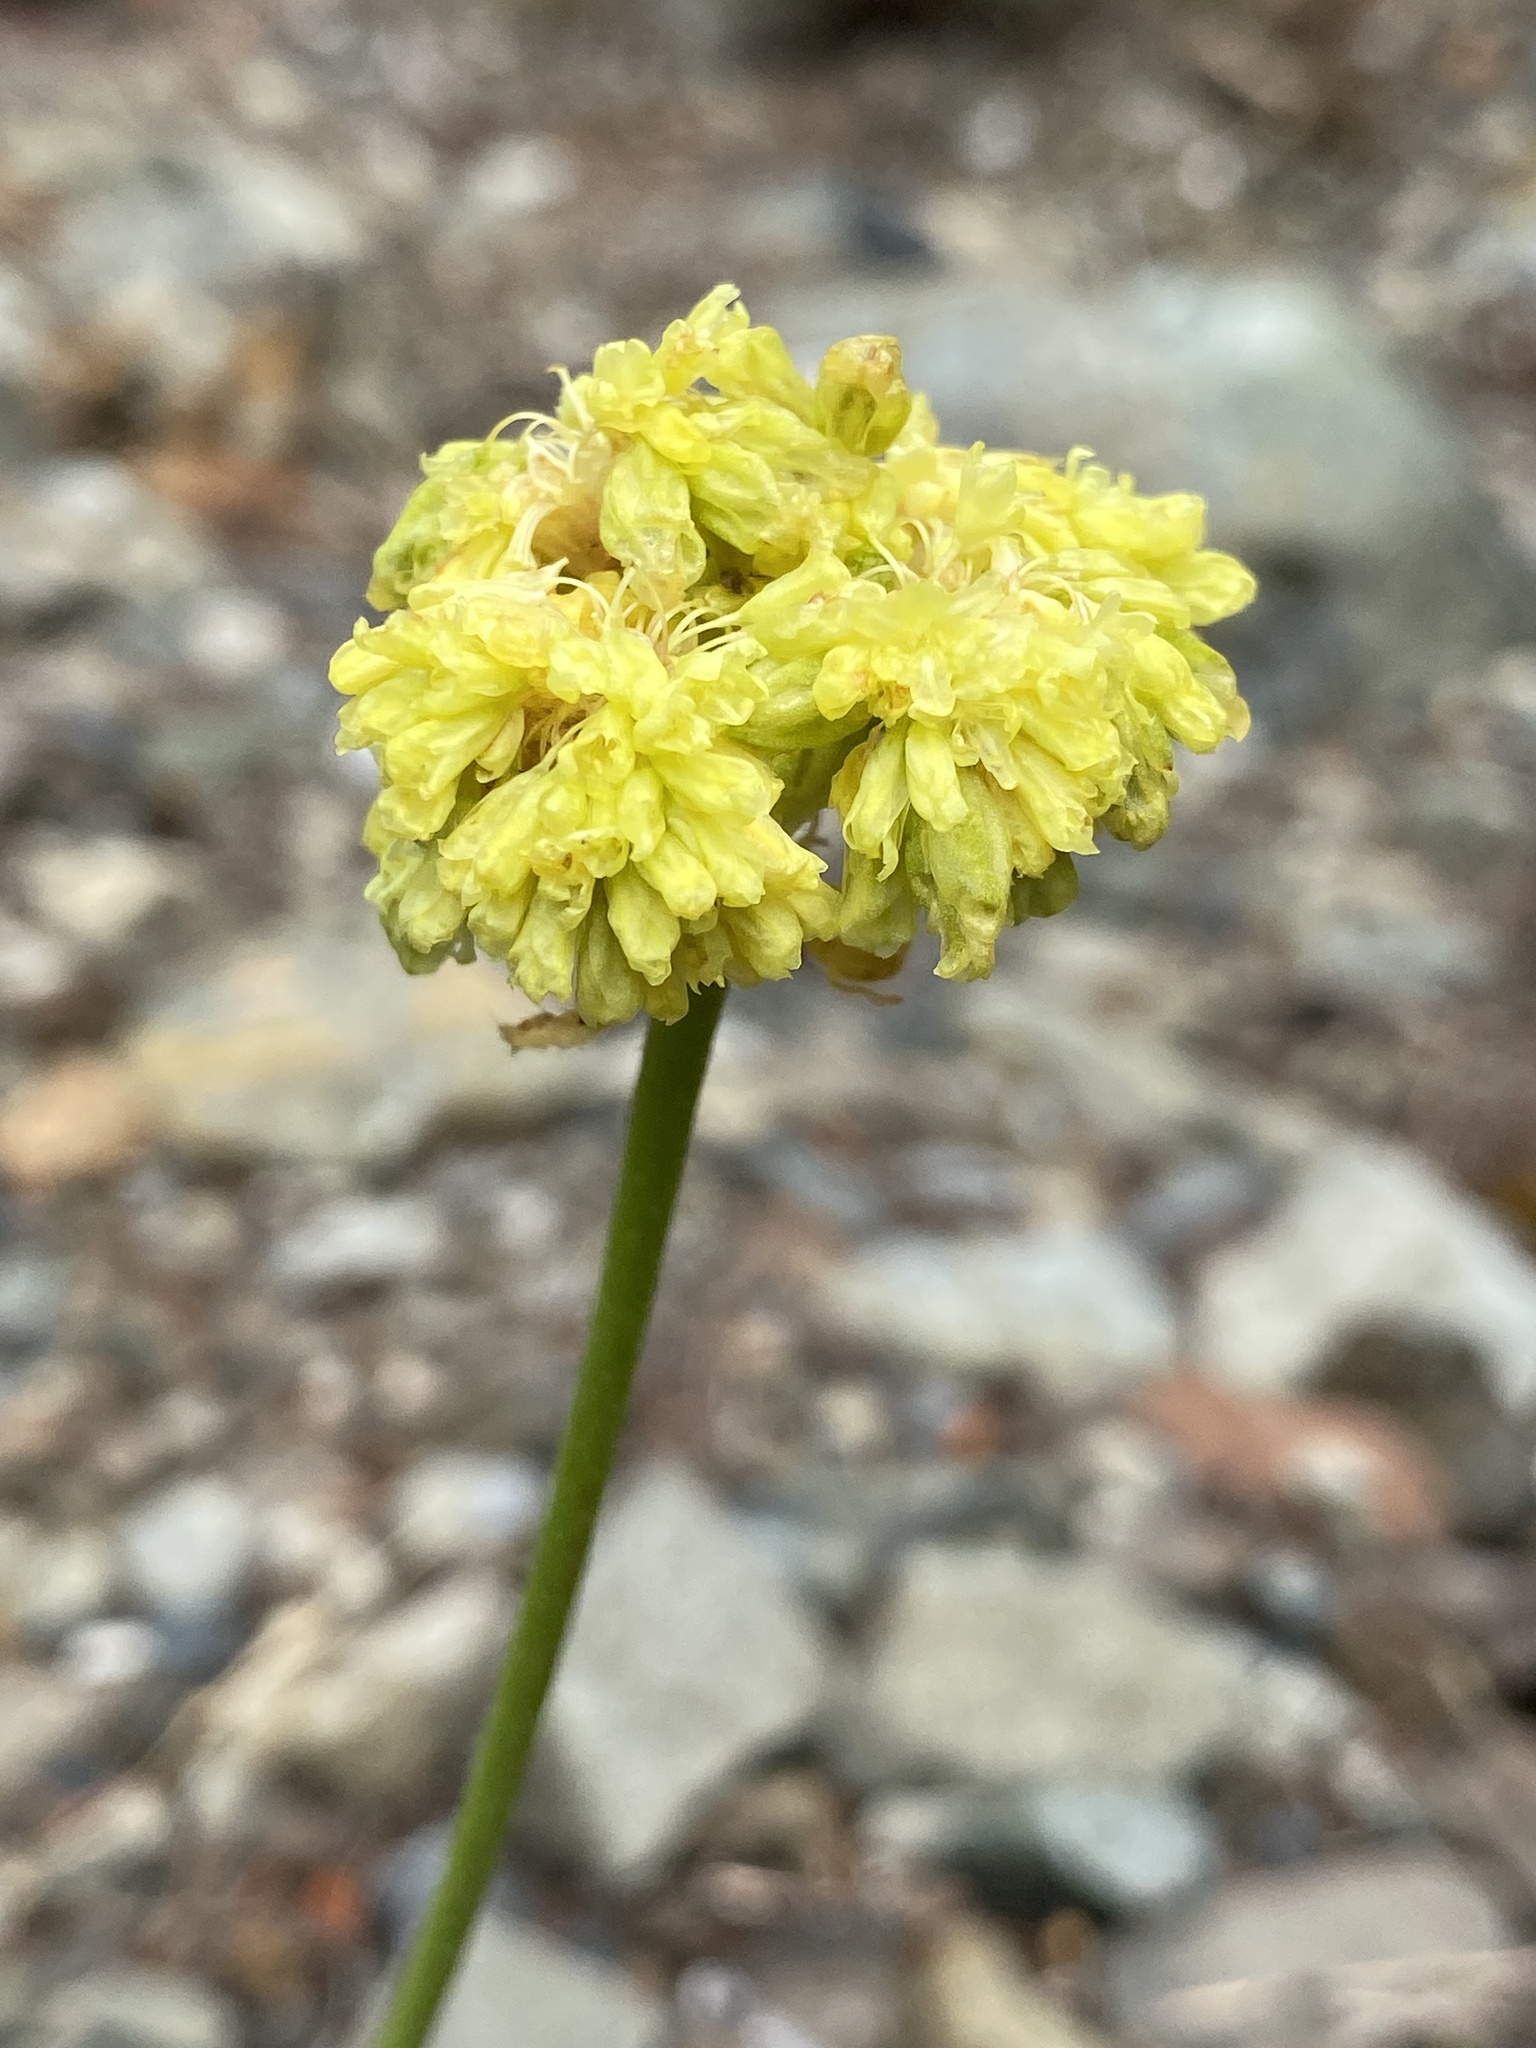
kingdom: Plantae
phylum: Tracheophyta
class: Magnoliopsida
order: Caryophyllales
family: Polygonaceae
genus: Eriogonum
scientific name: Eriogonum compositum
